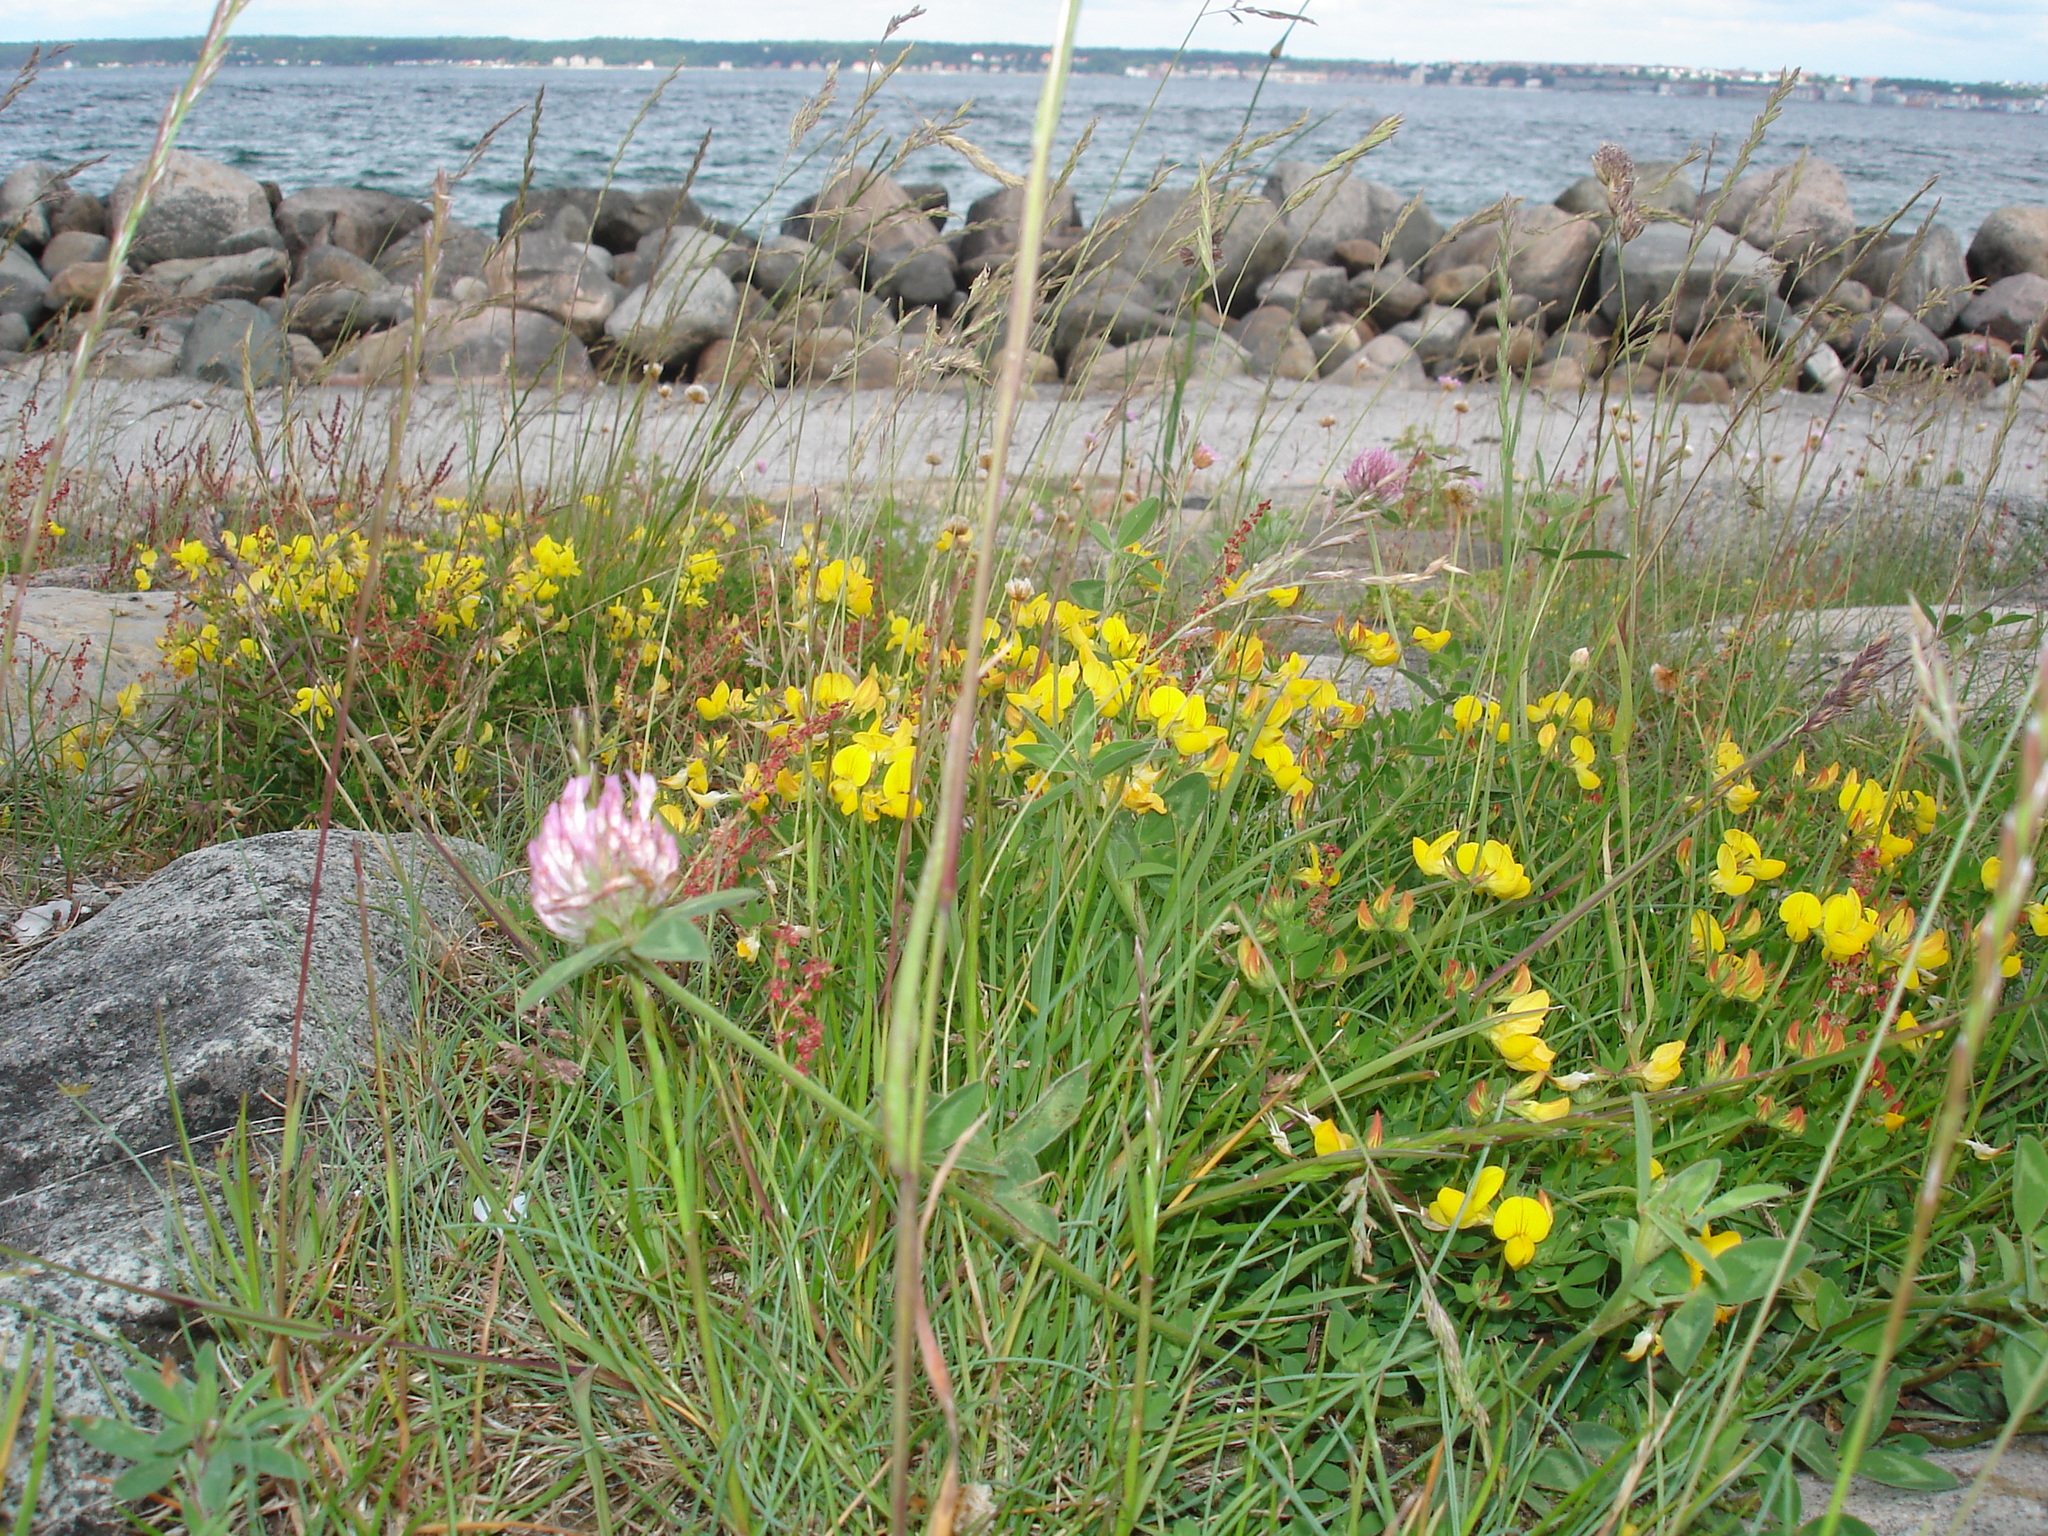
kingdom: Plantae
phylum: Tracheophyta
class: Magnoliopsida
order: Fabales
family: Fabaceae
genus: Trifolium
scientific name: Trifolium pratense
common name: Red clover
